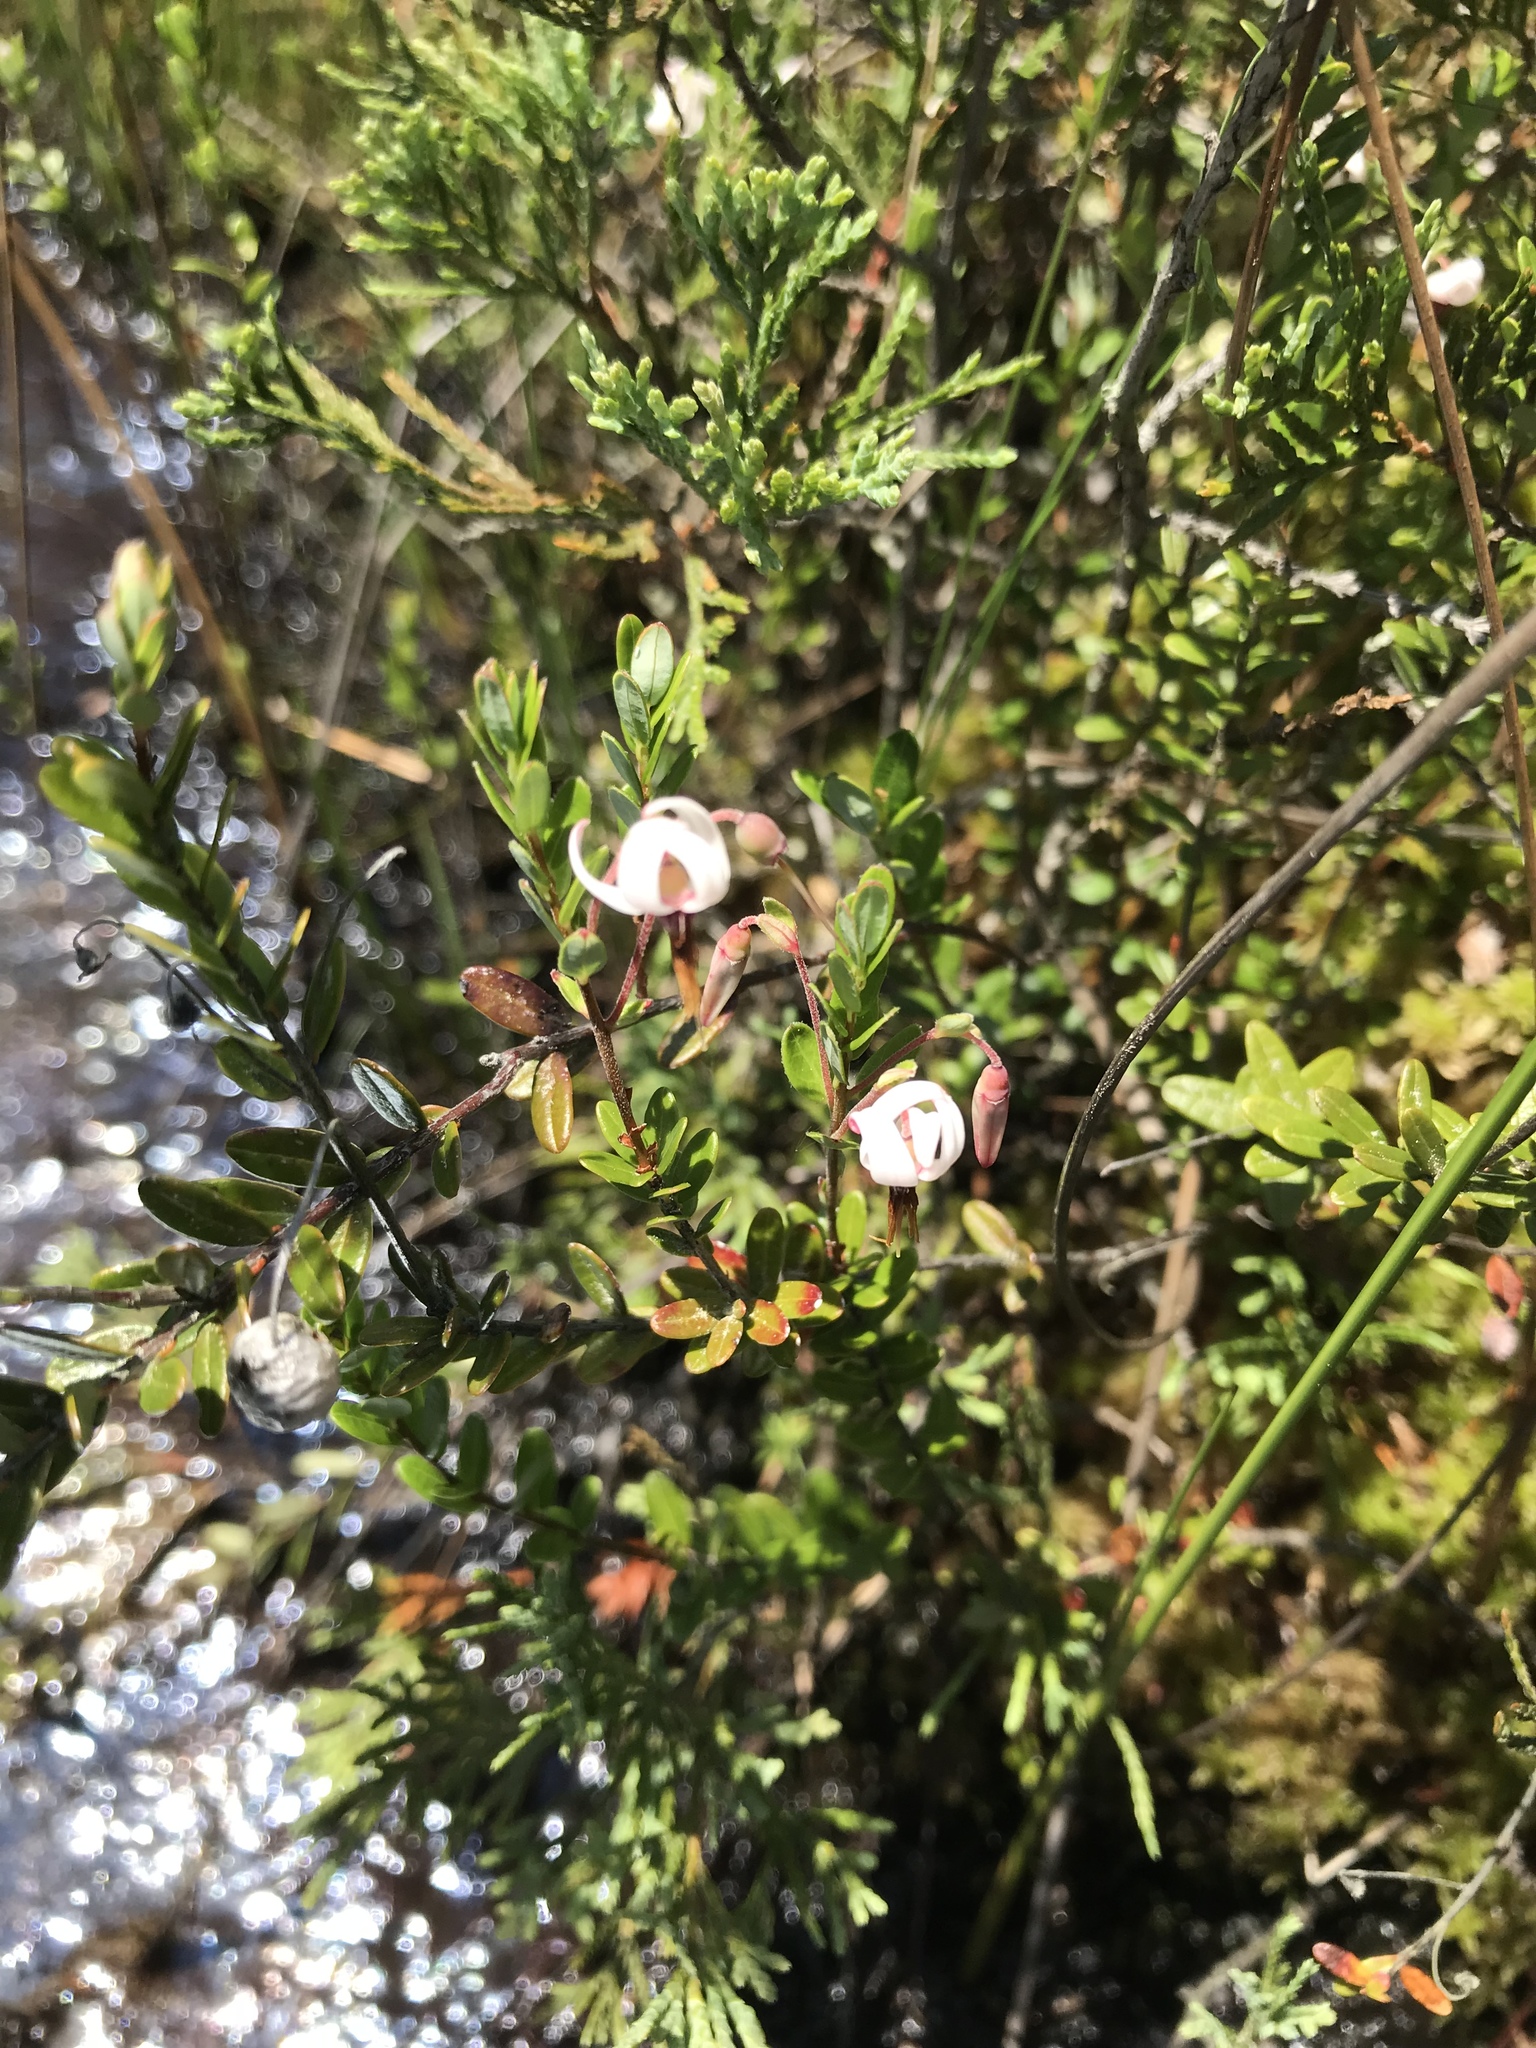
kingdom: Plantae
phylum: Tracheophyta
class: Magnoliopsida
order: Ericales
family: Ericaceae
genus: Vaccinium
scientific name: Vaccinium macrocarpon
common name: American cranberry
